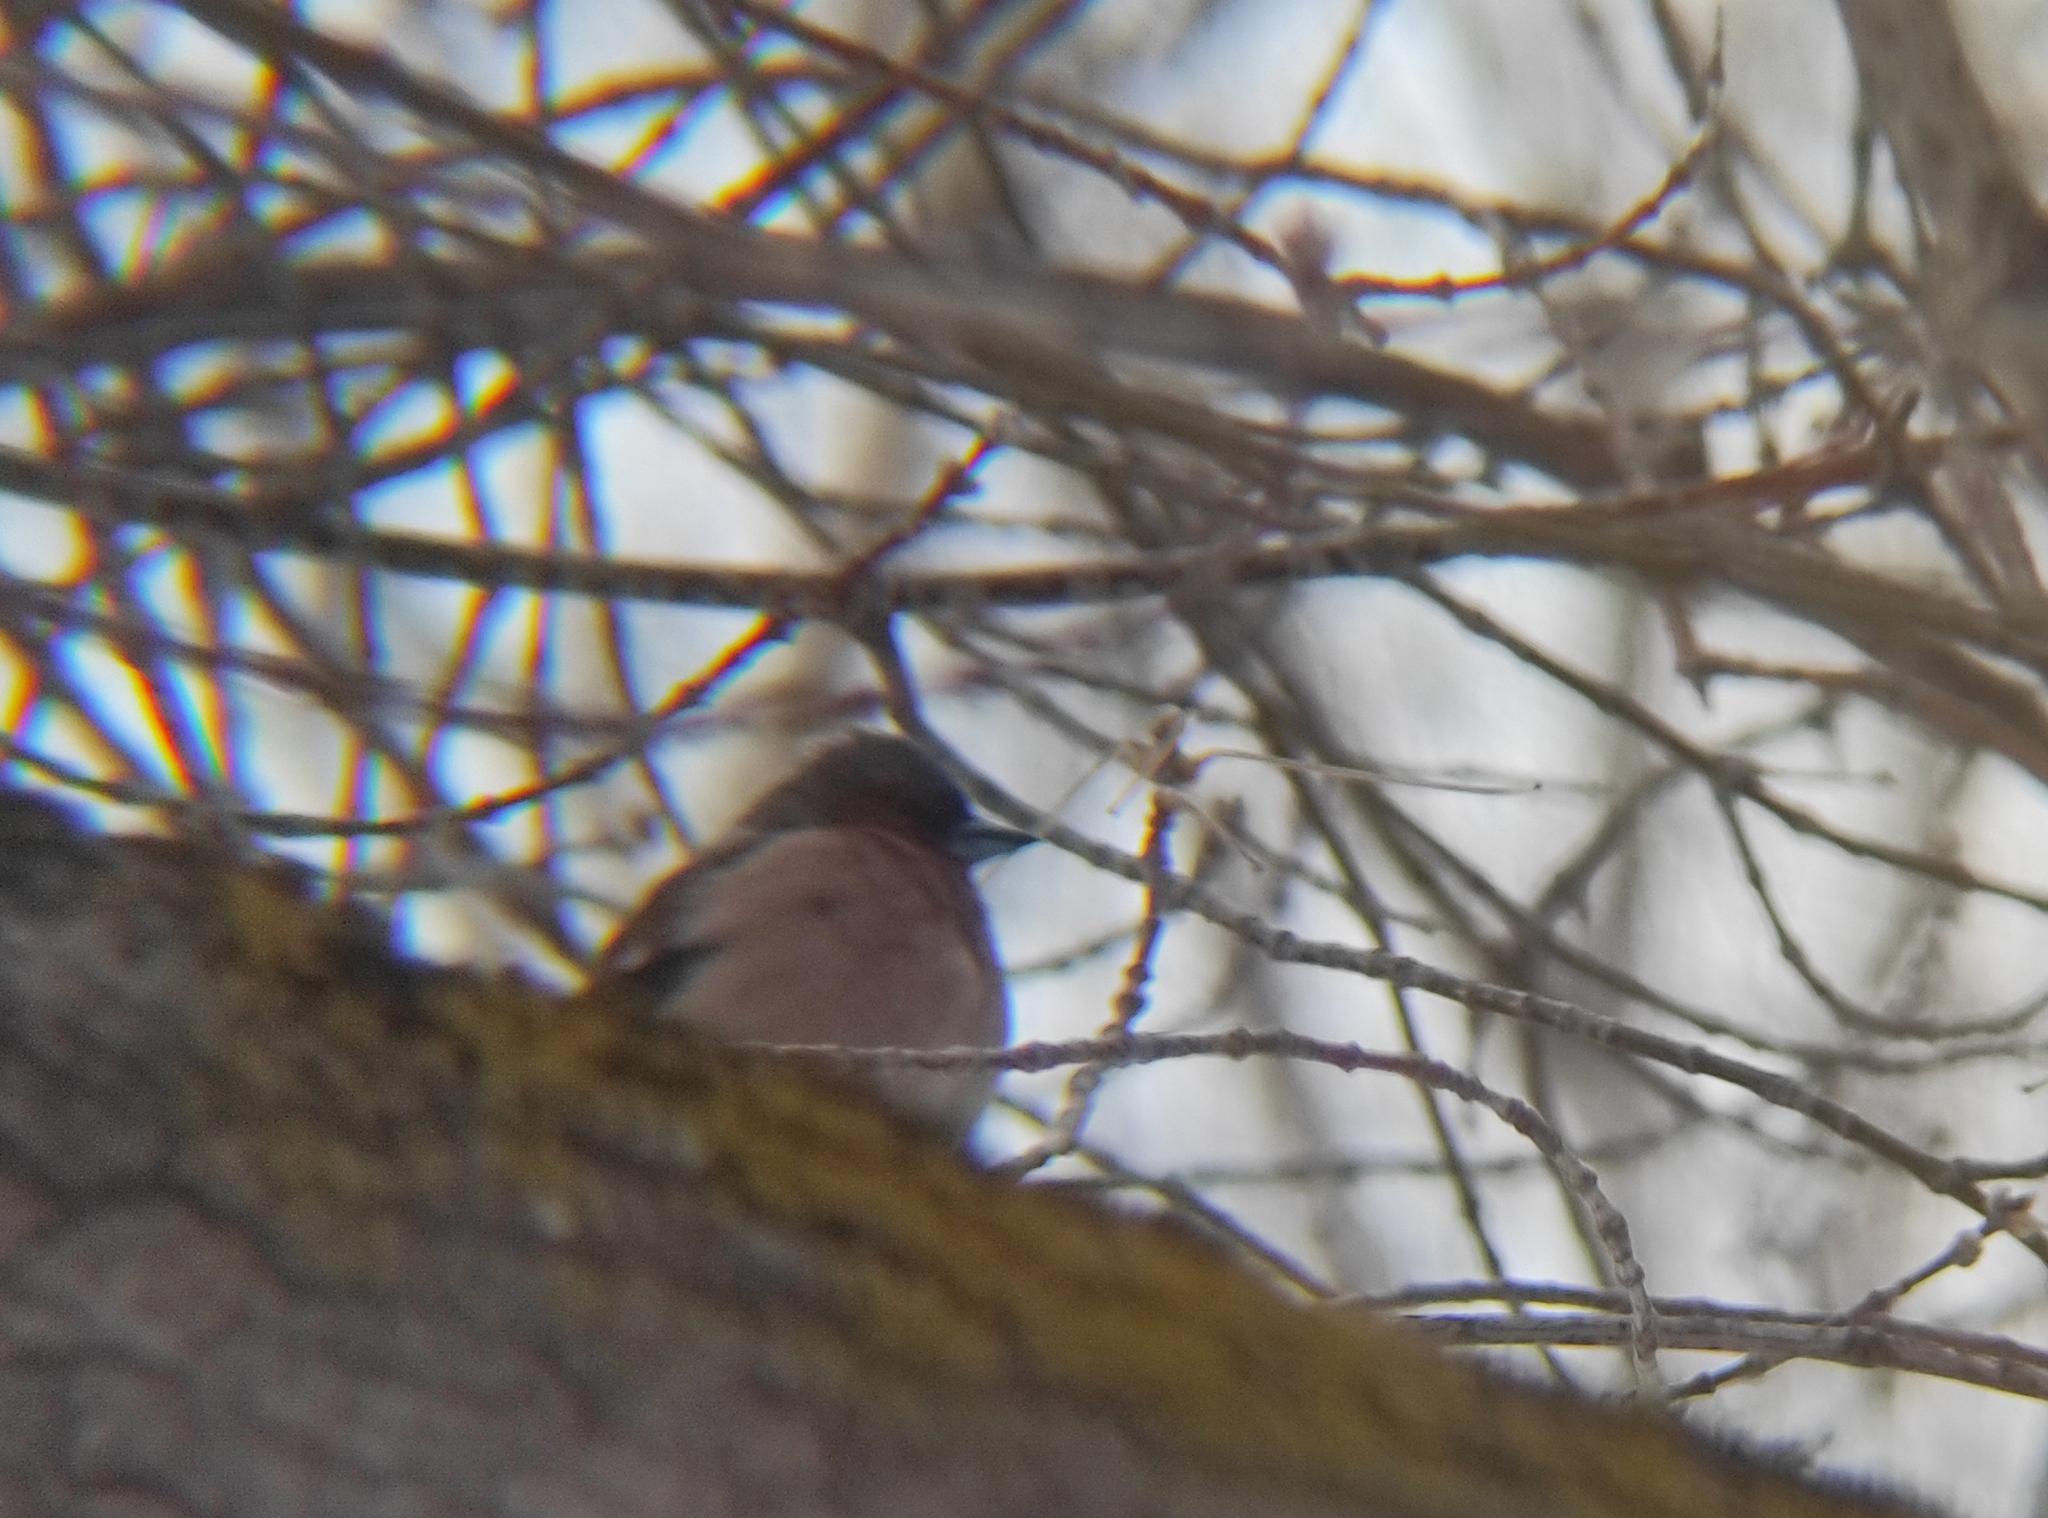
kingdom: Animalia
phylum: Chordata
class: Aves
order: Passeriformes
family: Fringillidae
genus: Fringilla
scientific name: Fringilla coelebs
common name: Common chaffinch
